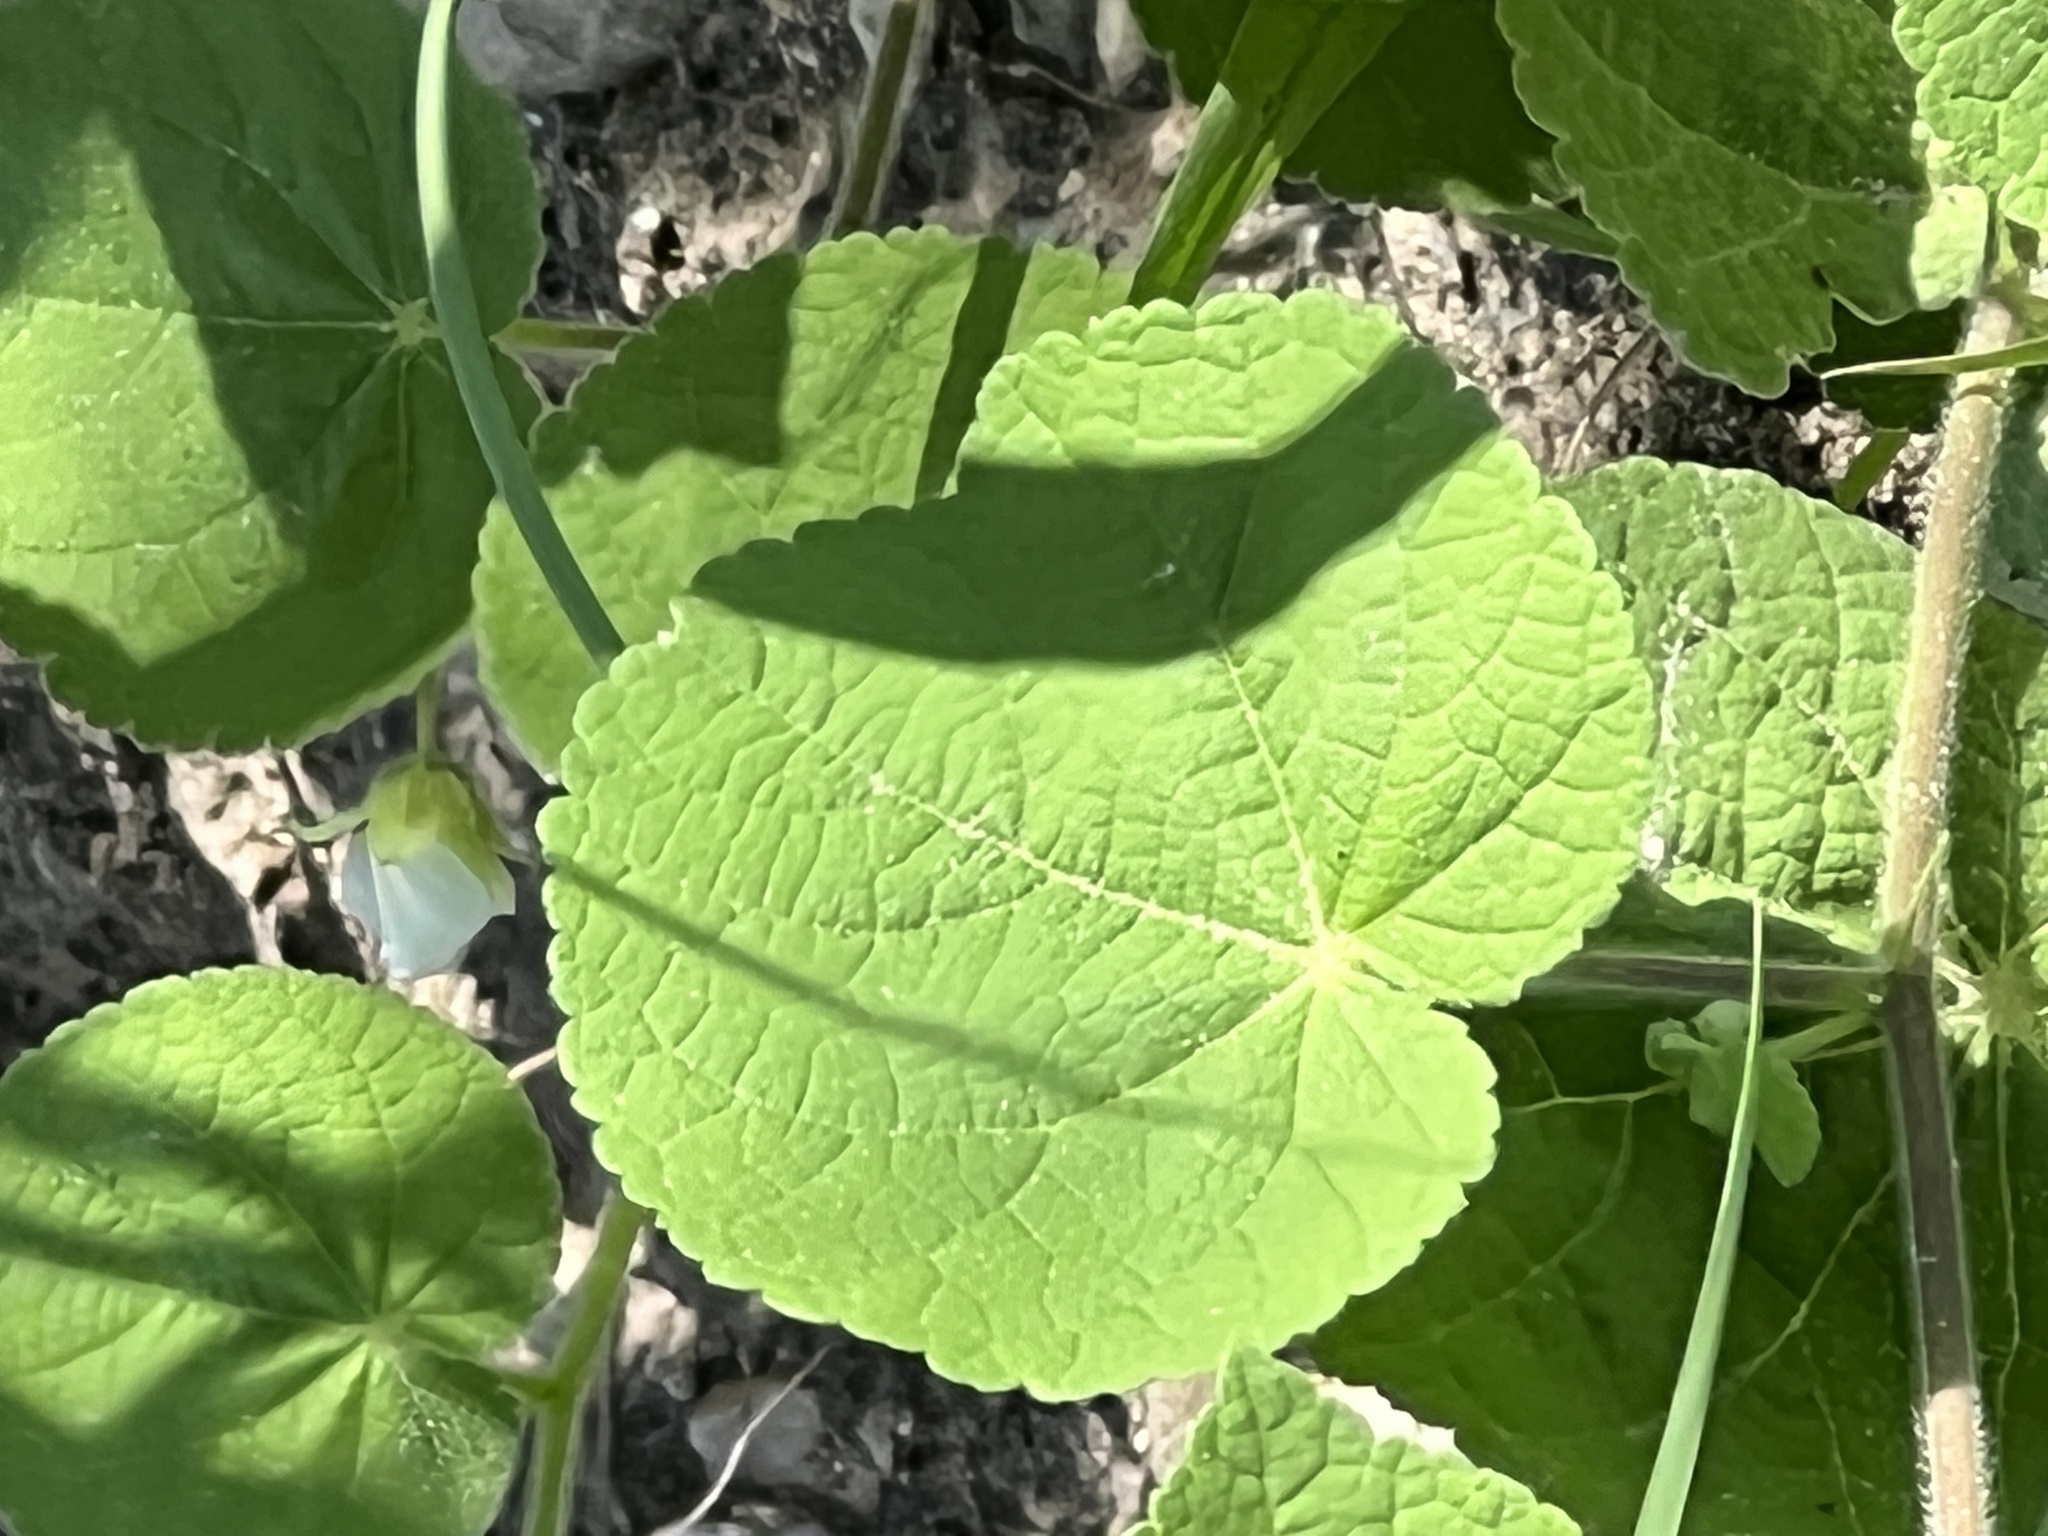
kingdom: Plantae
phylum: Tracheophyta
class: Magnoliopsida
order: Malvales
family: Malvaceae
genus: Herissantia
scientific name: Herissantia crispa
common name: Bladdermallow
